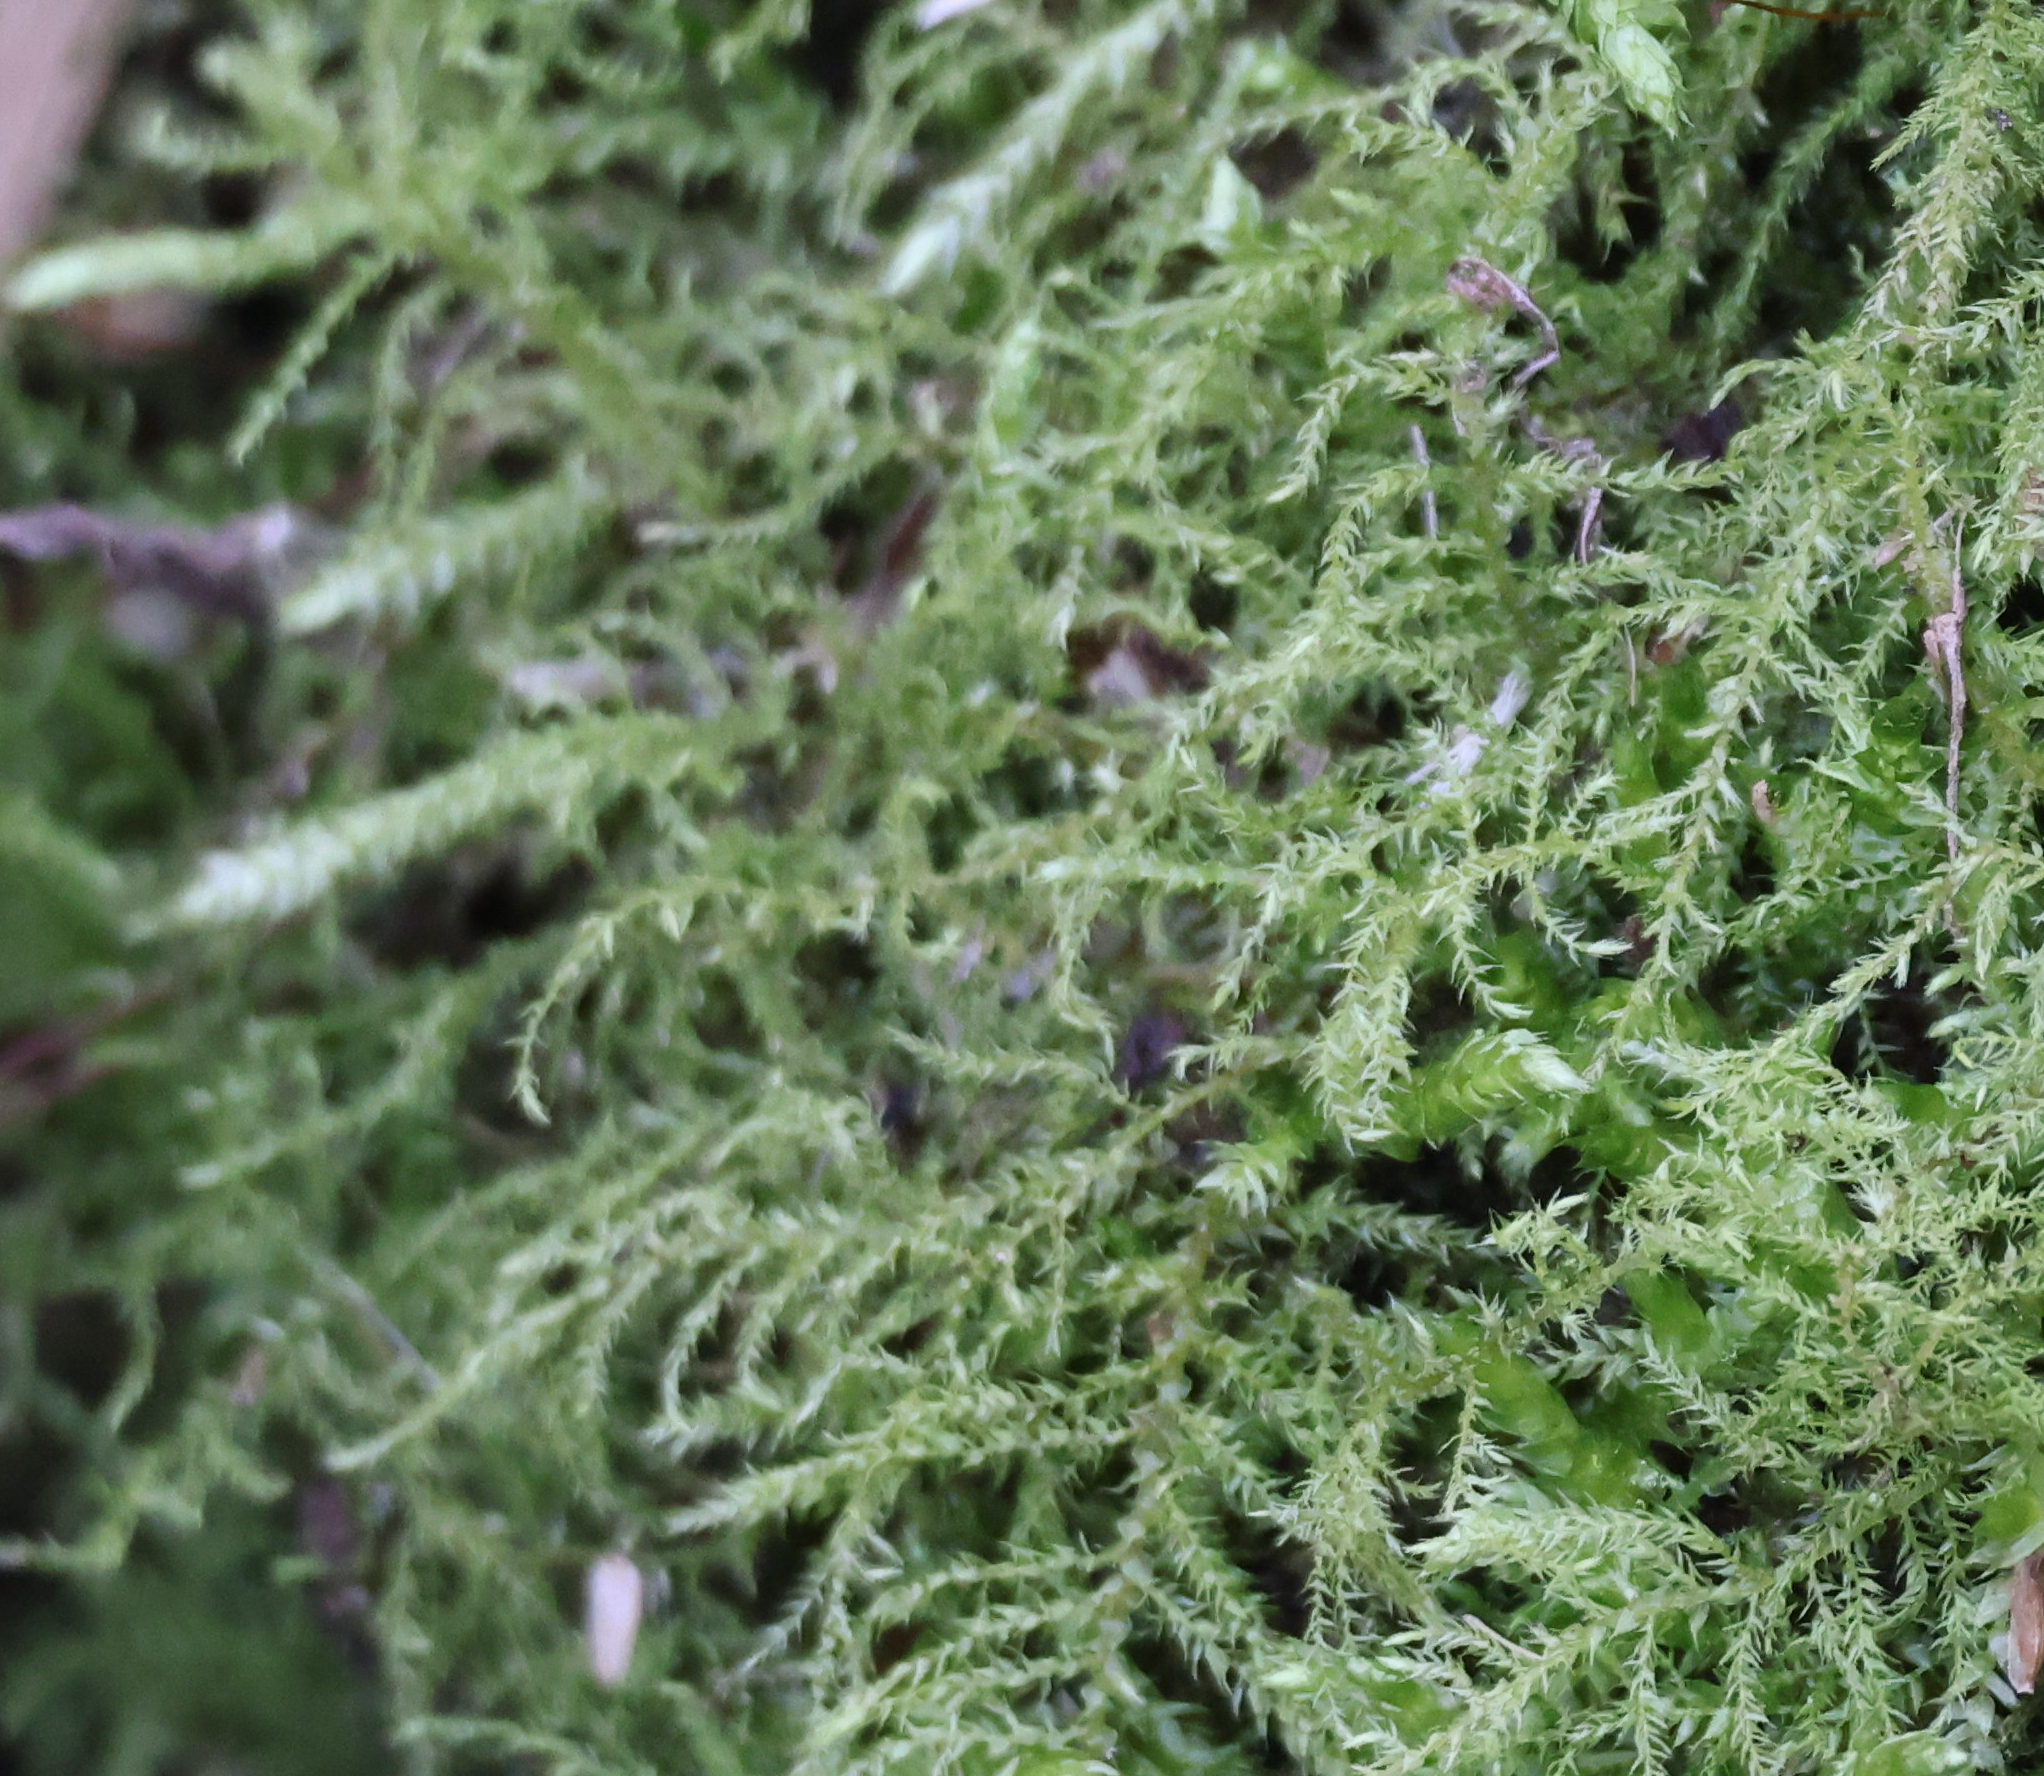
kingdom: Plantae
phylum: Bryophyta
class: Bryopsida
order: Hypnales
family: Brachytheciaceae
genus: Kindbergia
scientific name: Kindbergia praelonga
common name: Slender beaked moss
